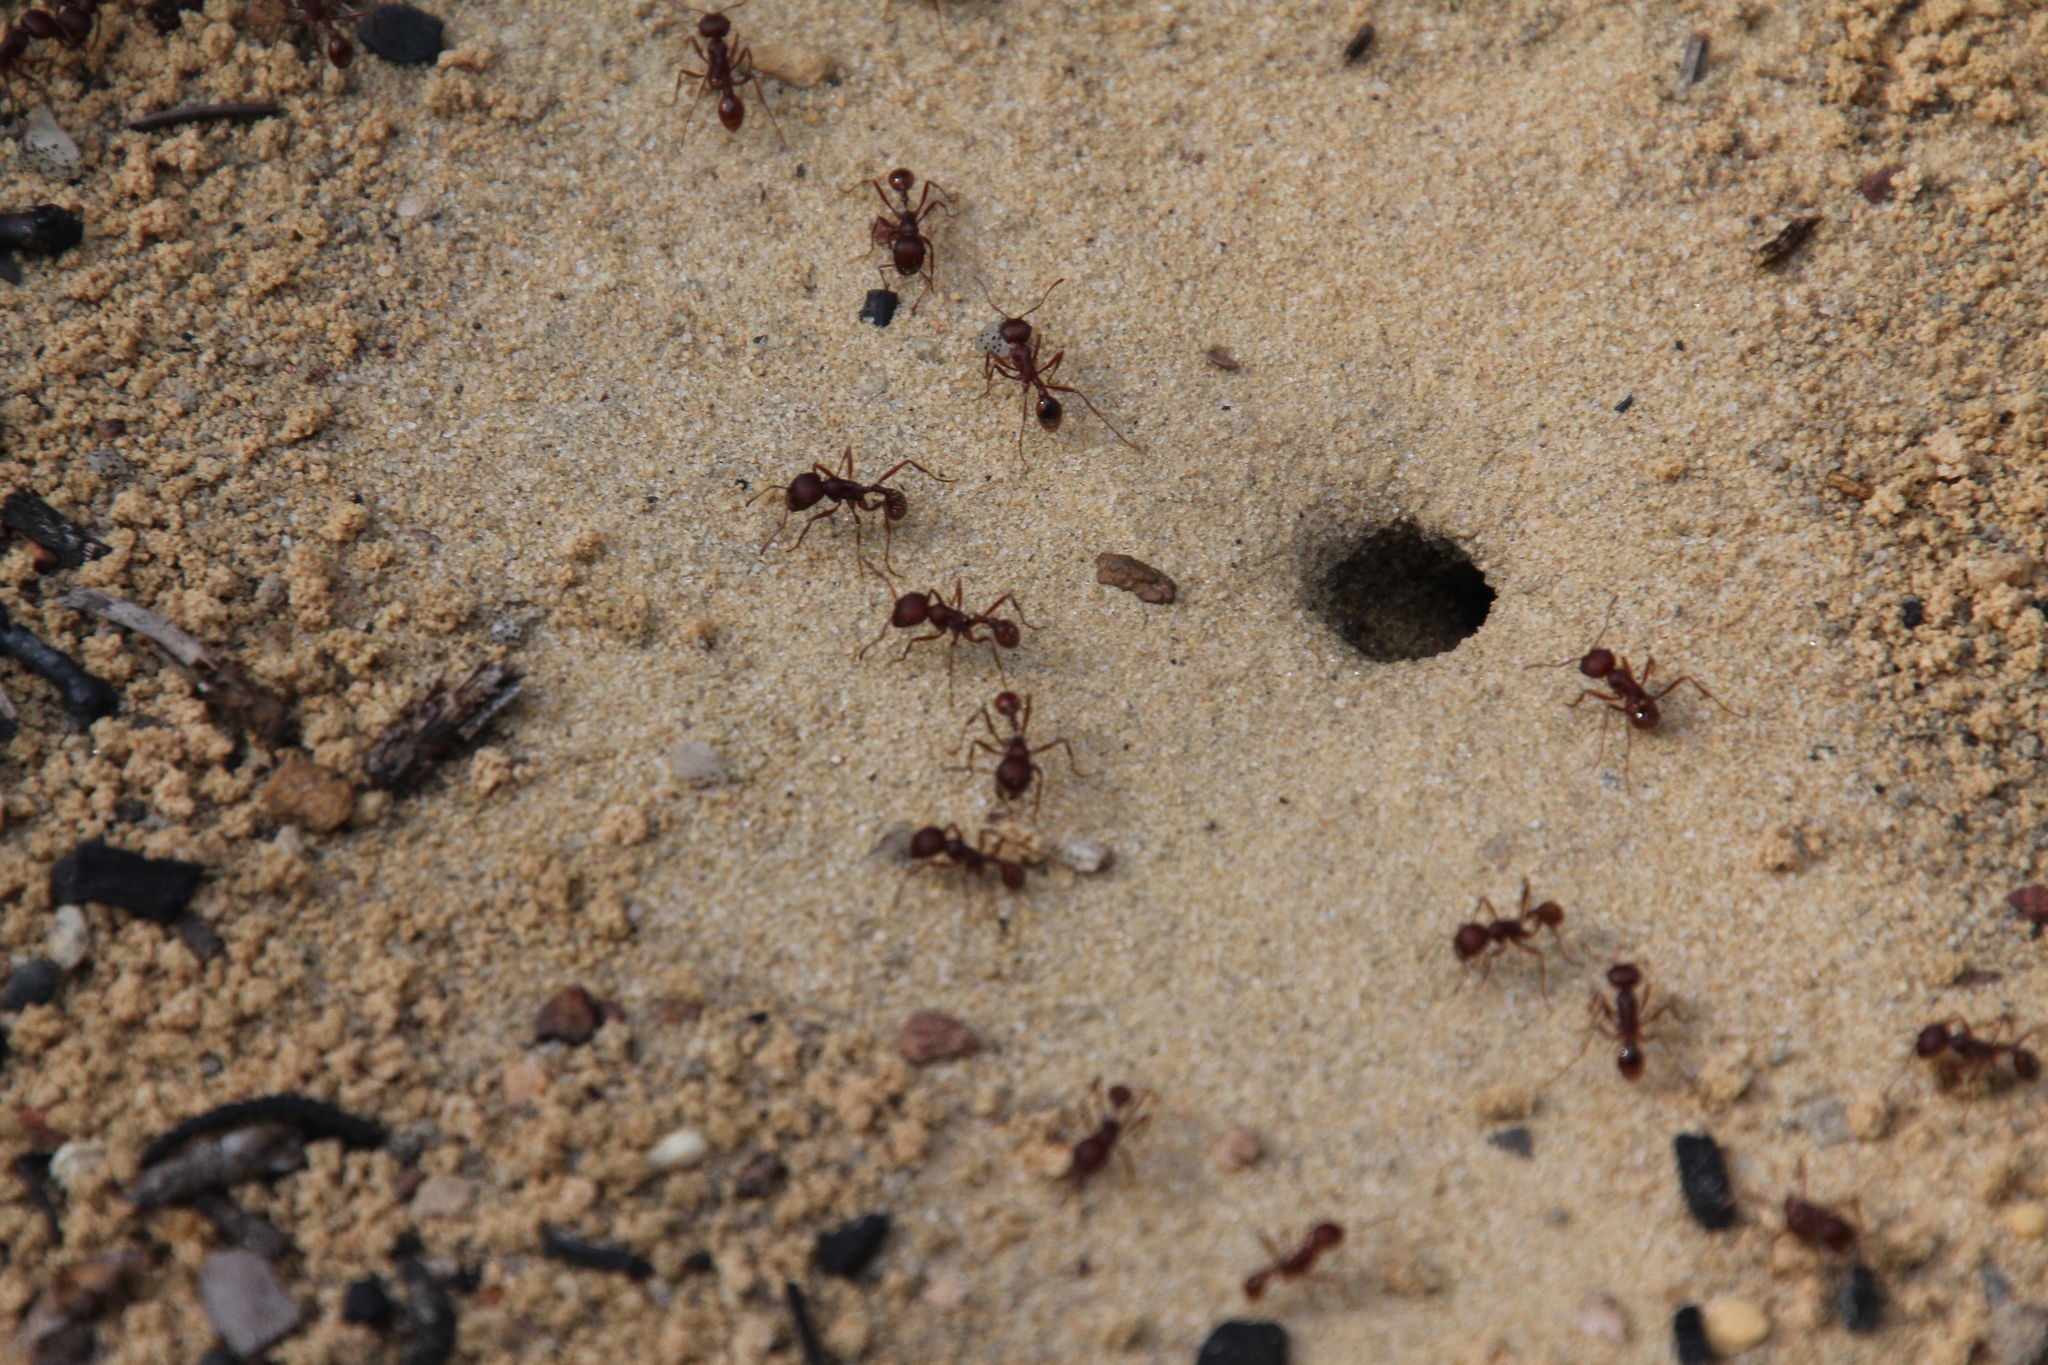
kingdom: Animalia
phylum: Arthropoda
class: Insecta
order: Hymenoptera
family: Formicidae
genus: Pogonomyrmex
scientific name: Pogonomyrmex badius
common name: Florida harvester ant
